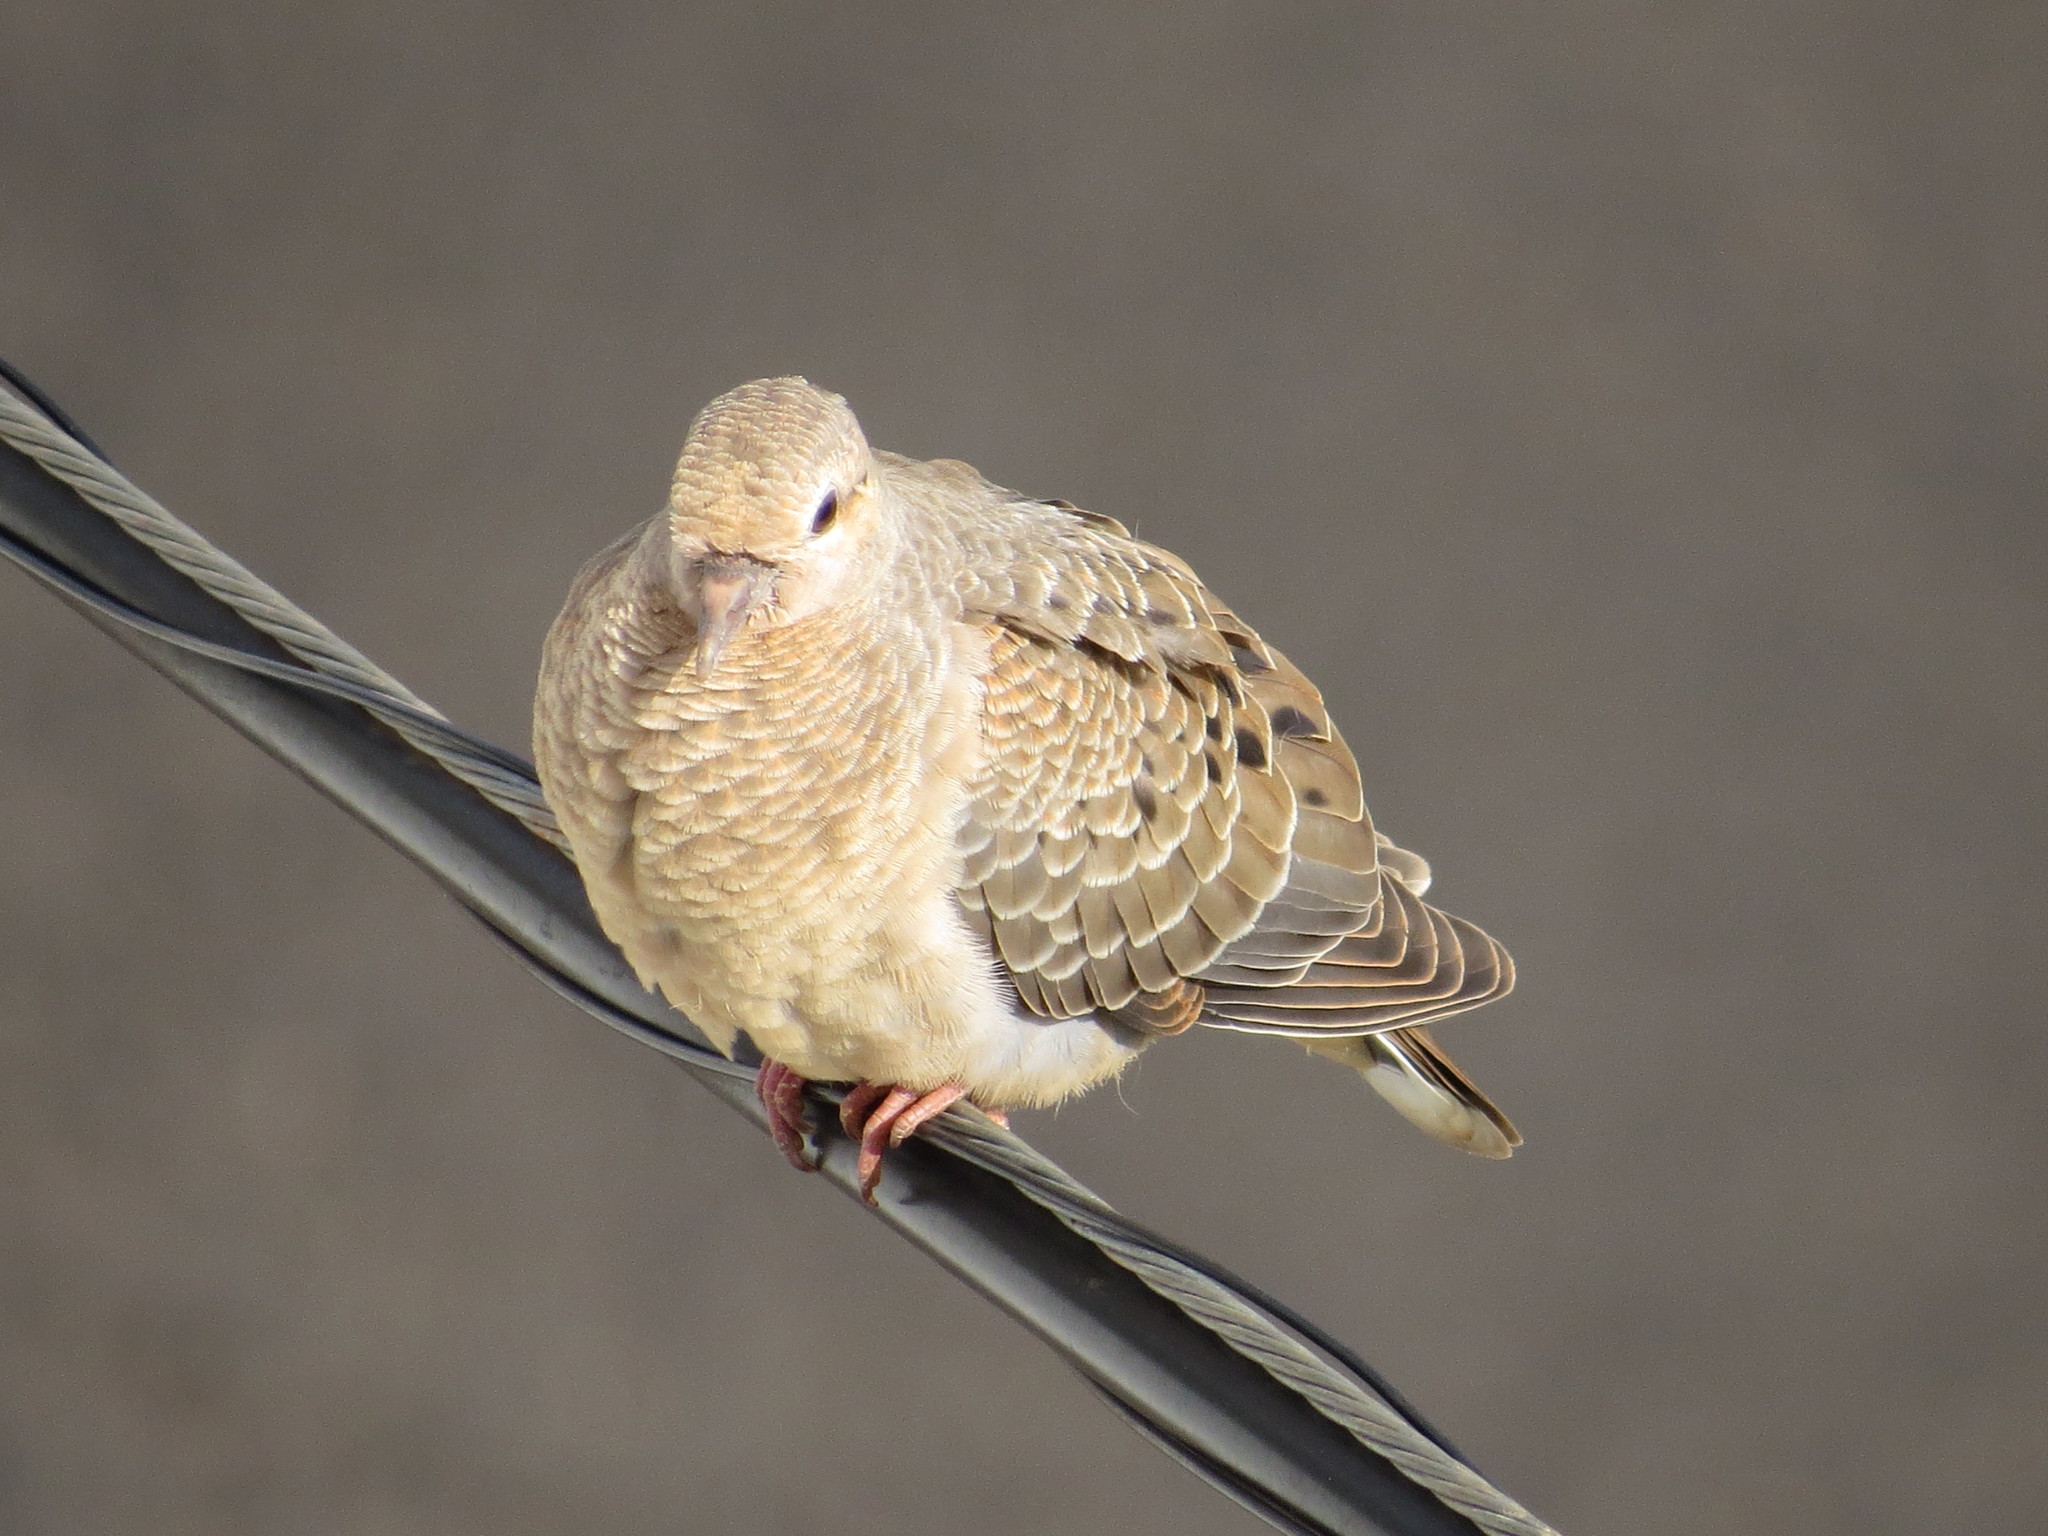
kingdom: Animalia
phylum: Chordata
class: Aves
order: Columbiformes
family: Columbidae
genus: Zenaida
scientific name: Zenaida auriculata
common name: Eared dove
